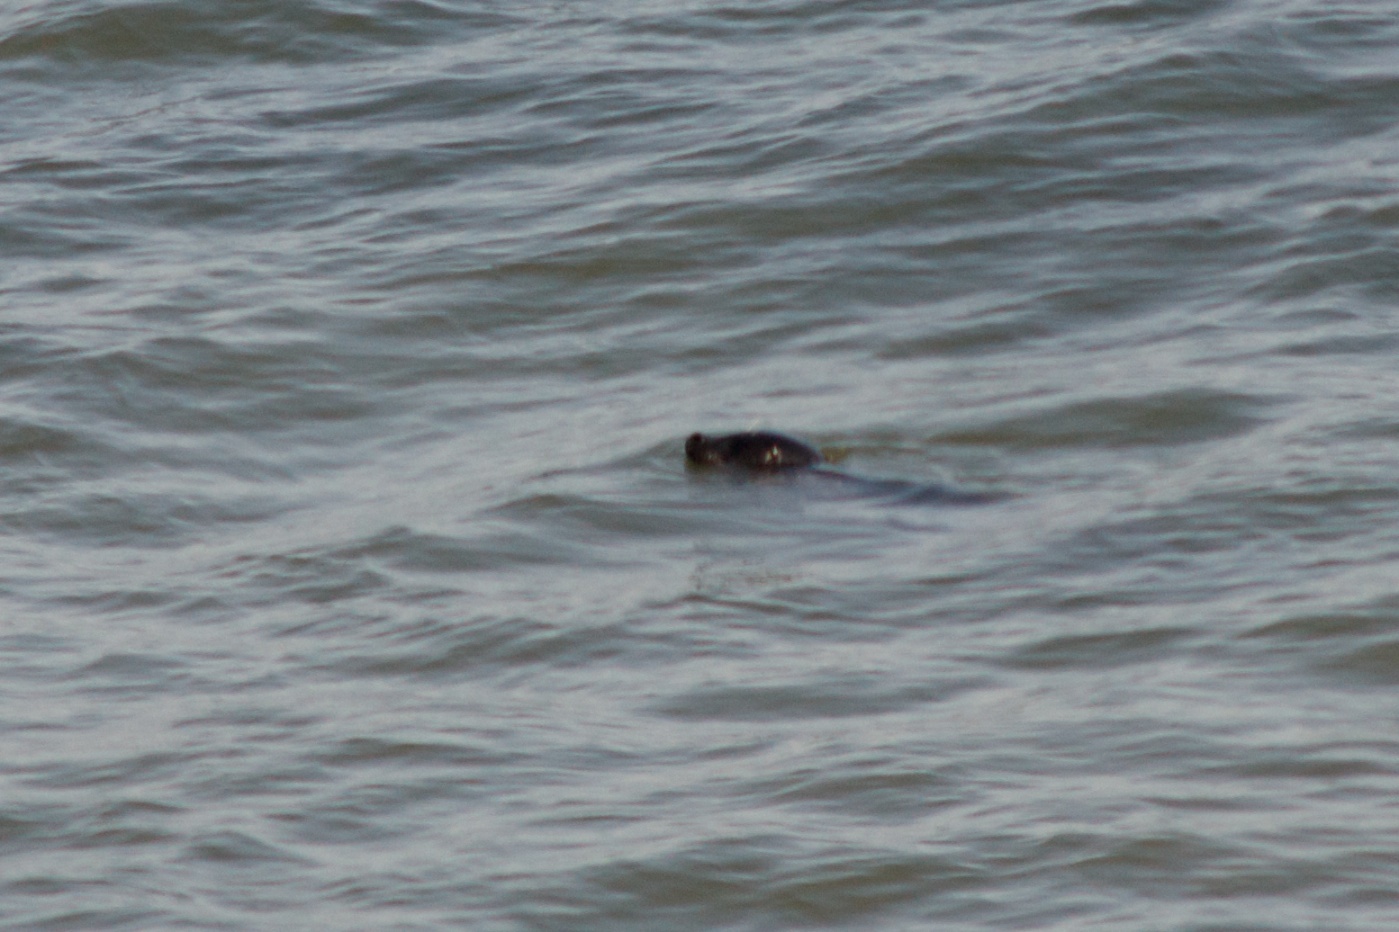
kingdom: Animalia
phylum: Chordata
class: Mammalia
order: Carnivora
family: Phocidae
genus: Phoca
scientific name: Phoca vitulina
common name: Harbor seal
